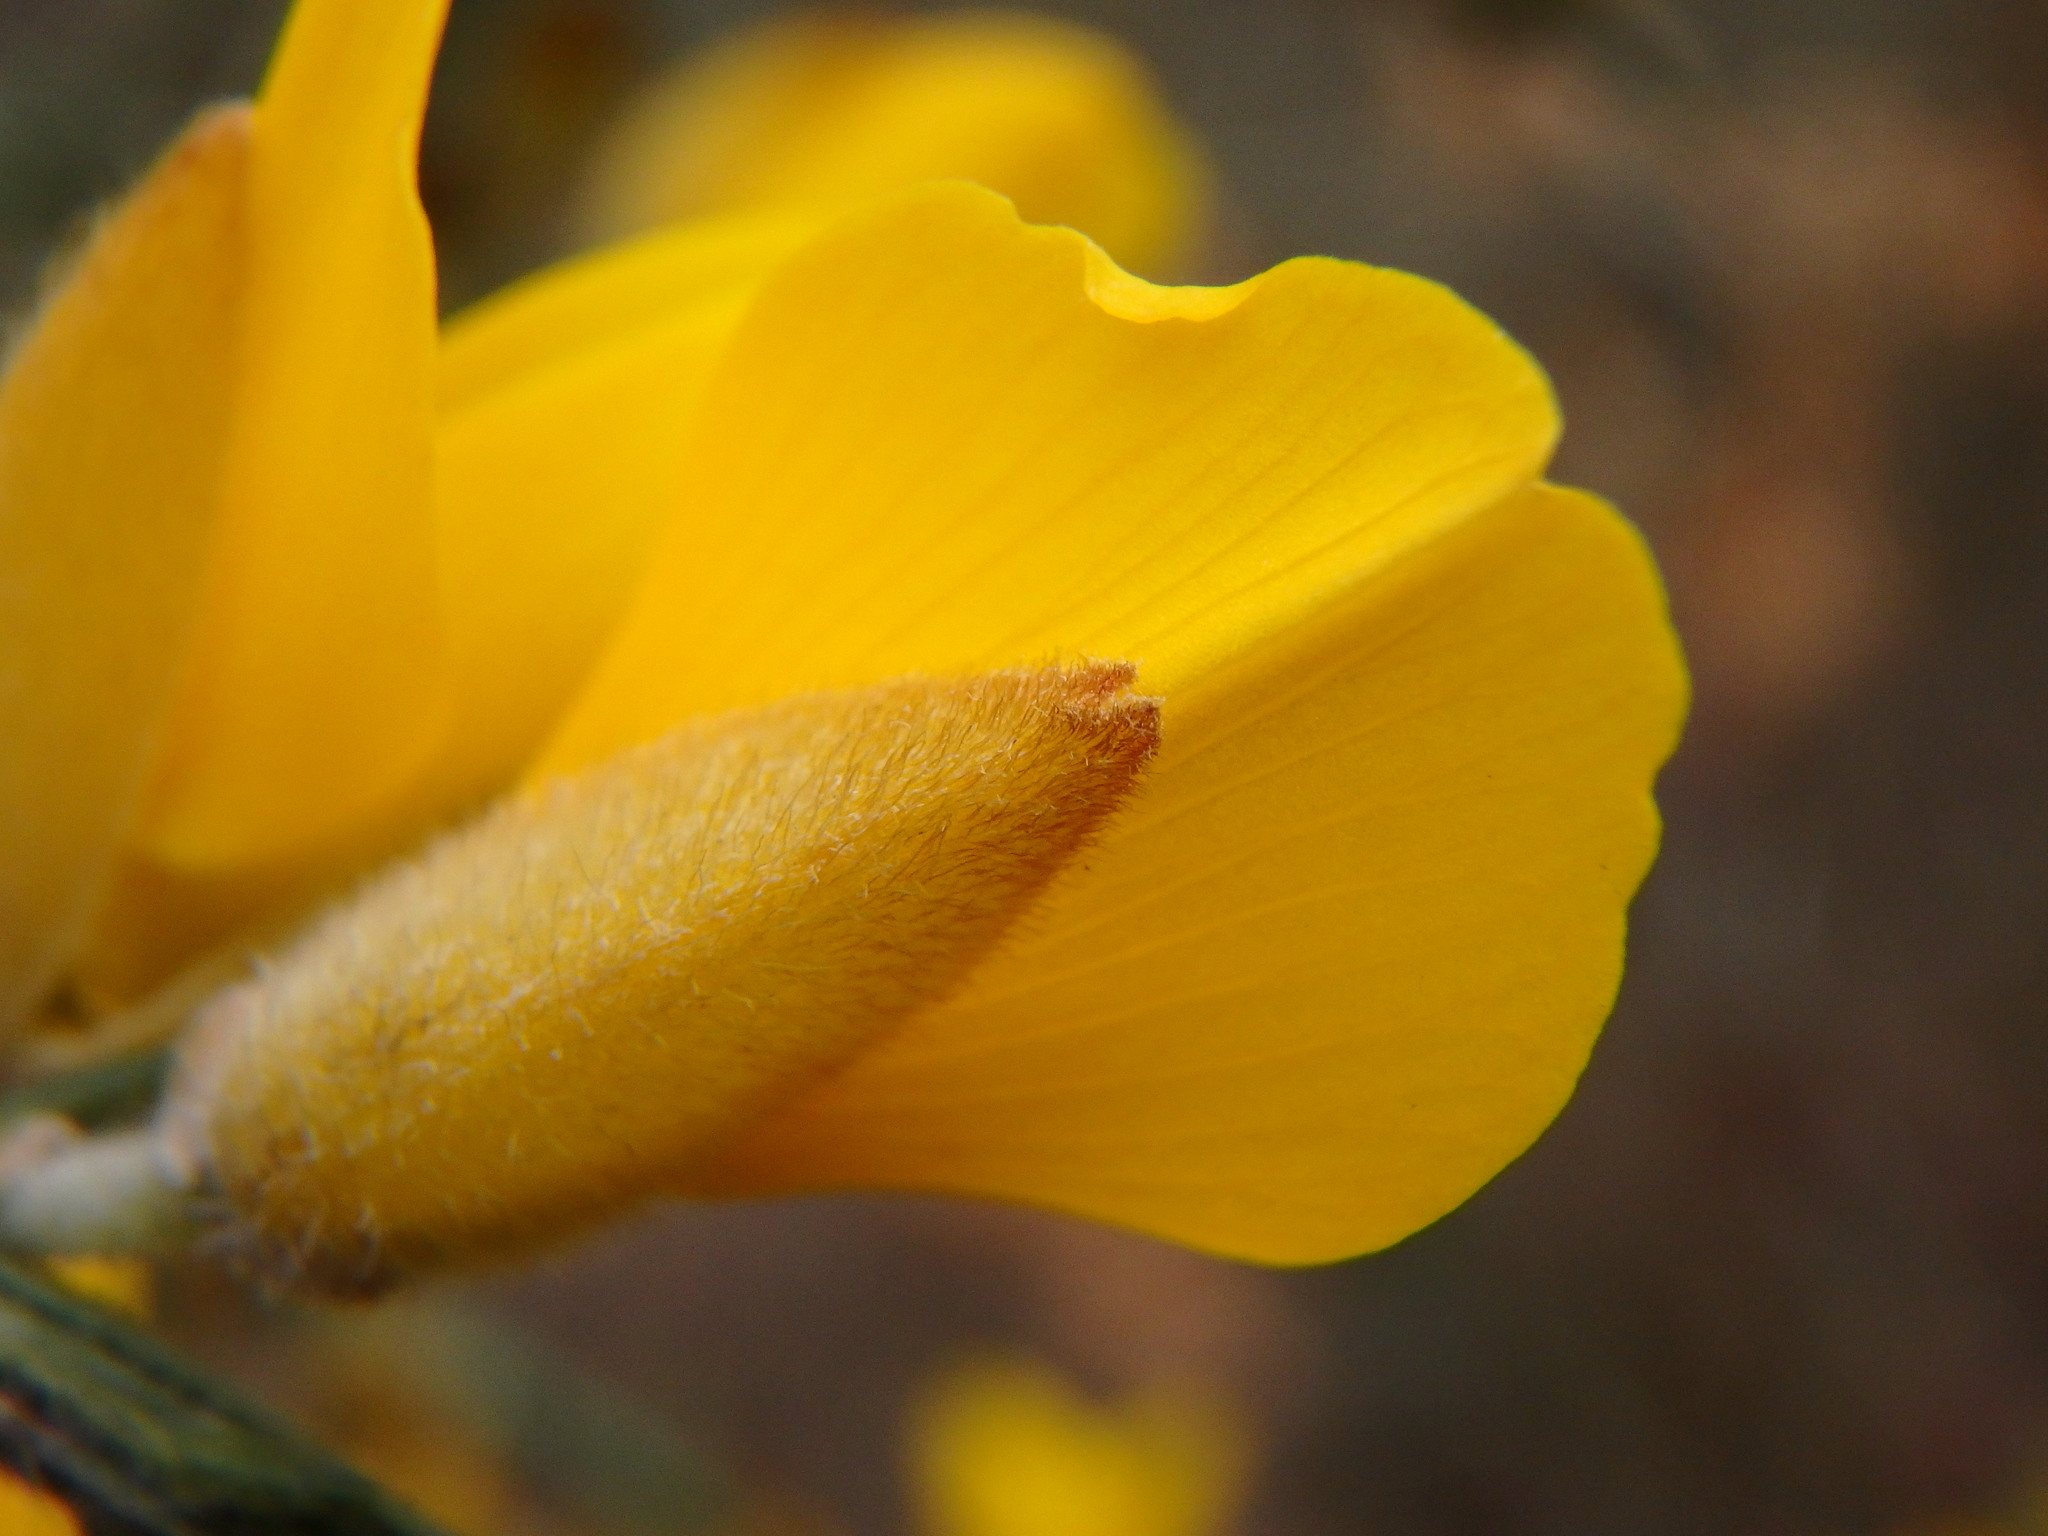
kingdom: Plantae
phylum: Tracheophyta
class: Magnoliopsida
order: Fabales
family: Fabaceae
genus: Ulex
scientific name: Ulex europaeus
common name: Common gorse
